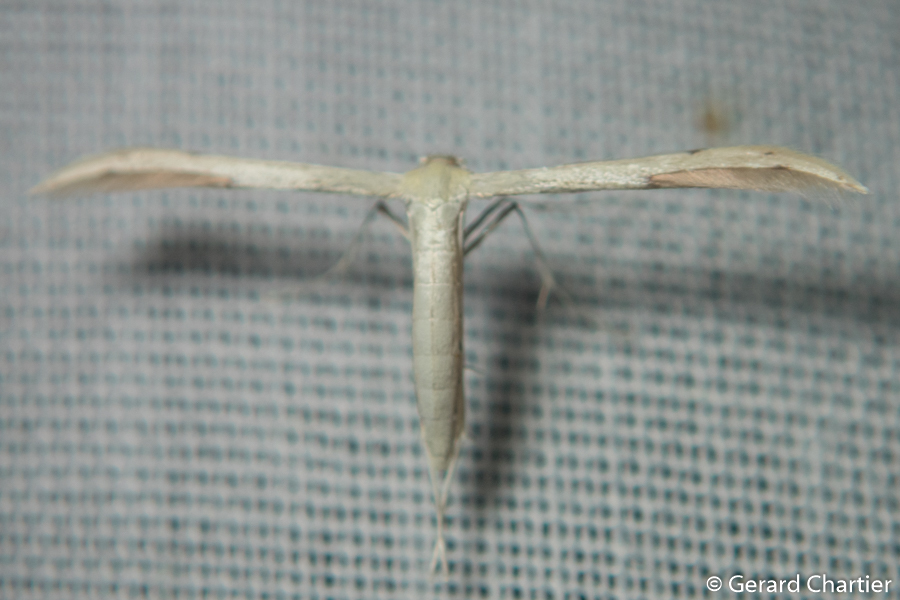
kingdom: Animalia
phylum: Arthropoda
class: Insecta
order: Lepidoptera
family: Pterophoridae
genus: Adaina
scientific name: Adaina microdactyla
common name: Hemp-agrimony plume
